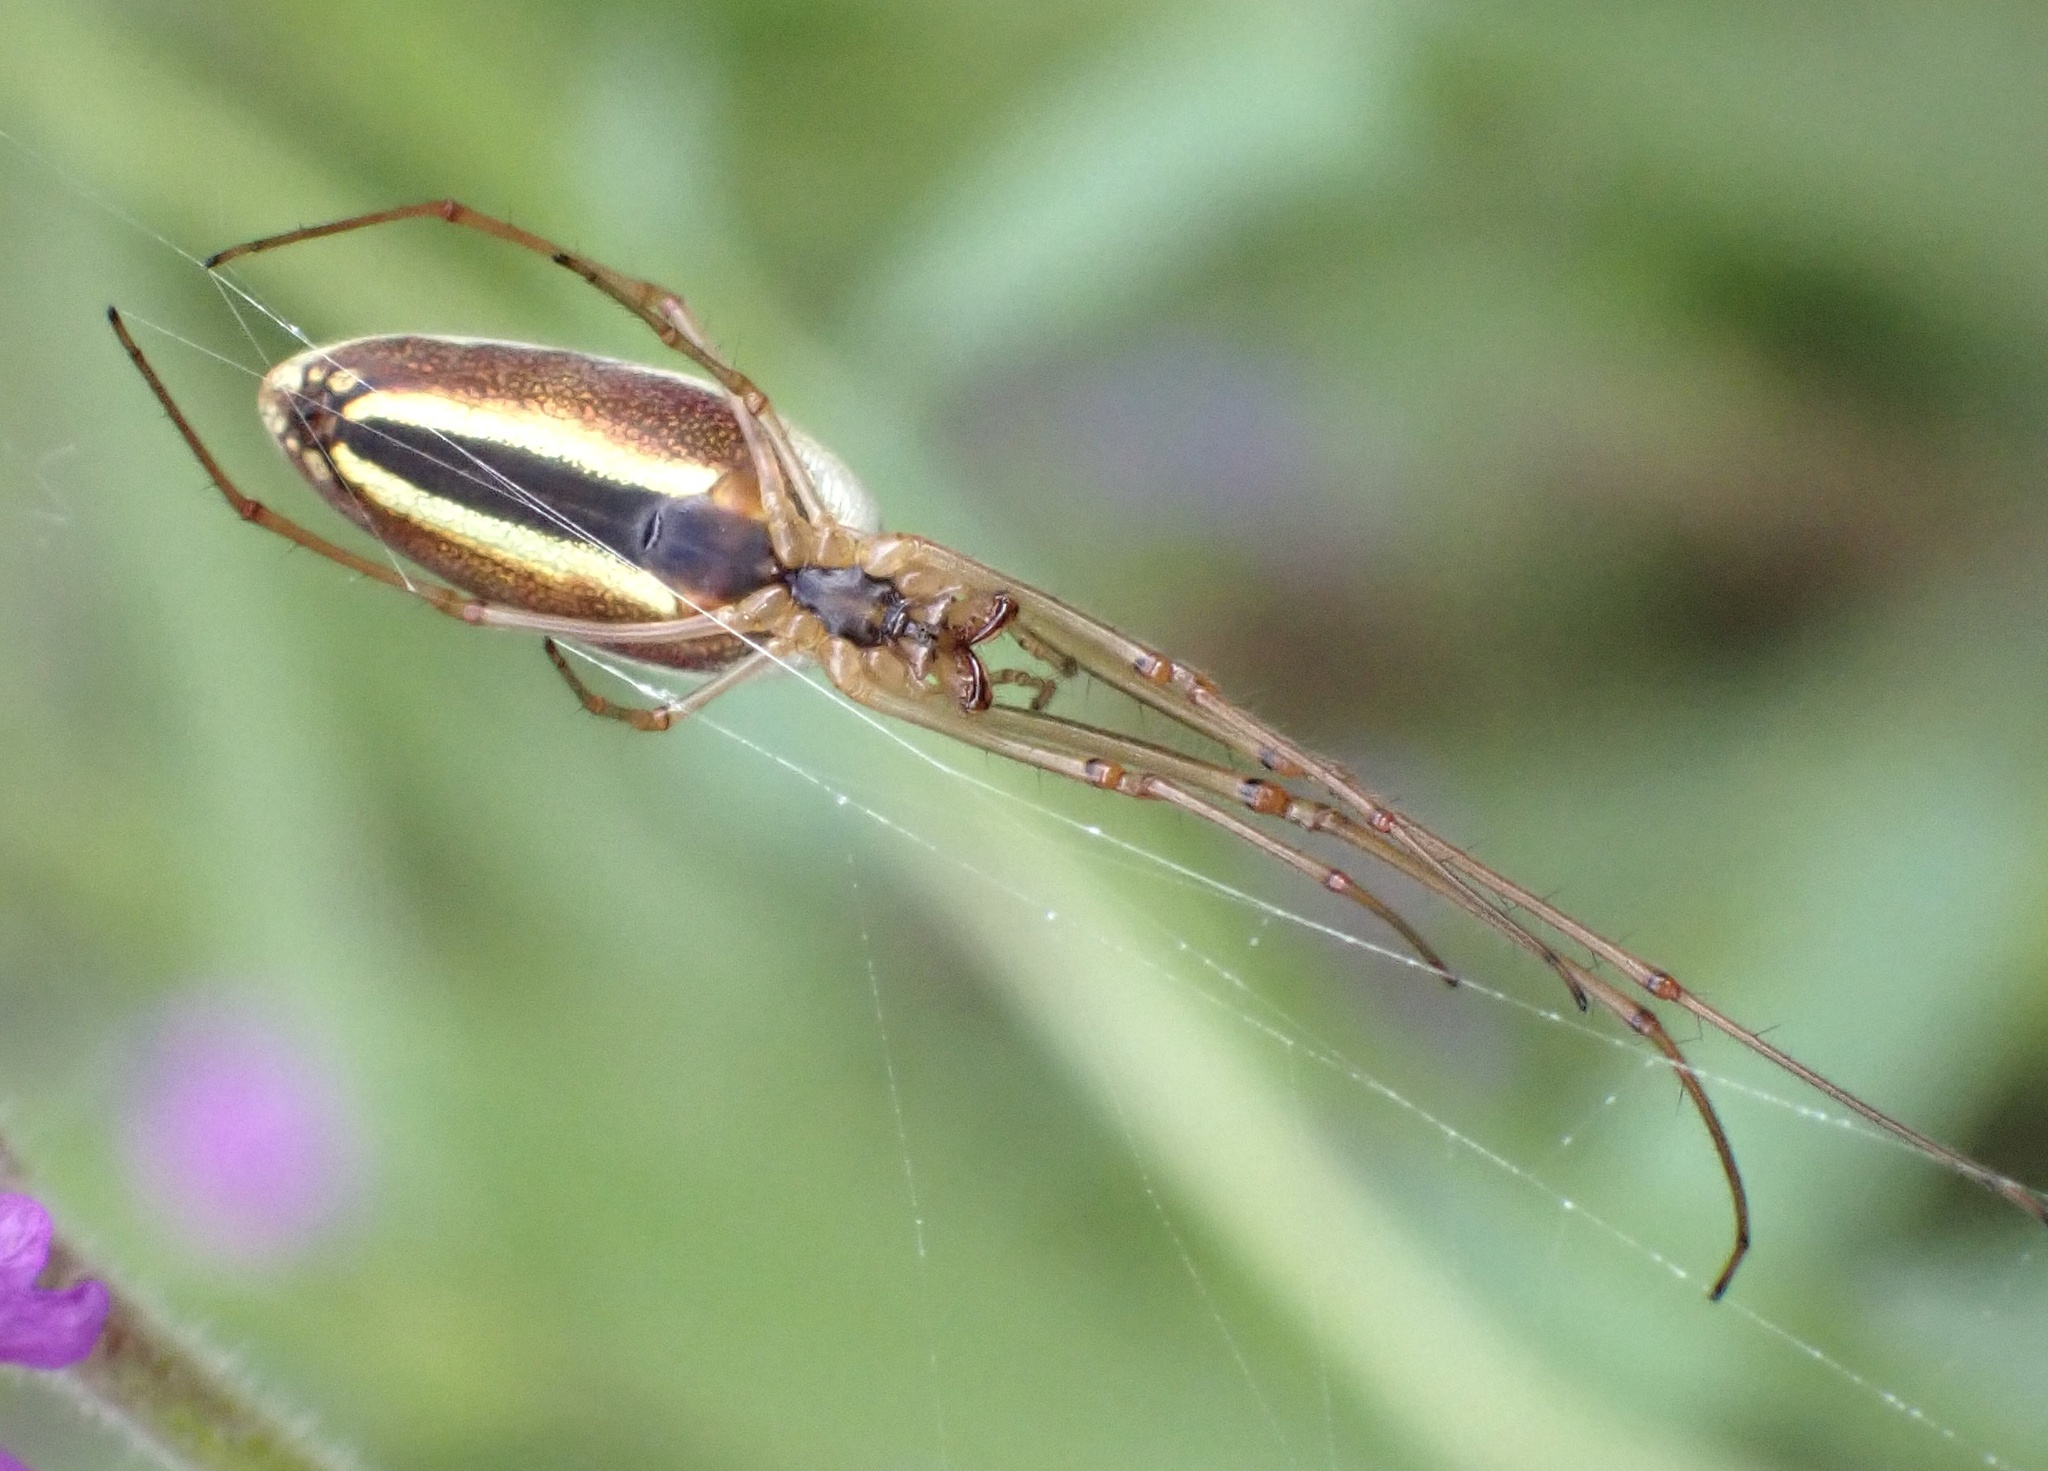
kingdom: Animalia
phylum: Arthropoda
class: Arachnida
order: Araneae
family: Tetragnathidae
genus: Tetragnatha
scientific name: Tetragnatha extensa
